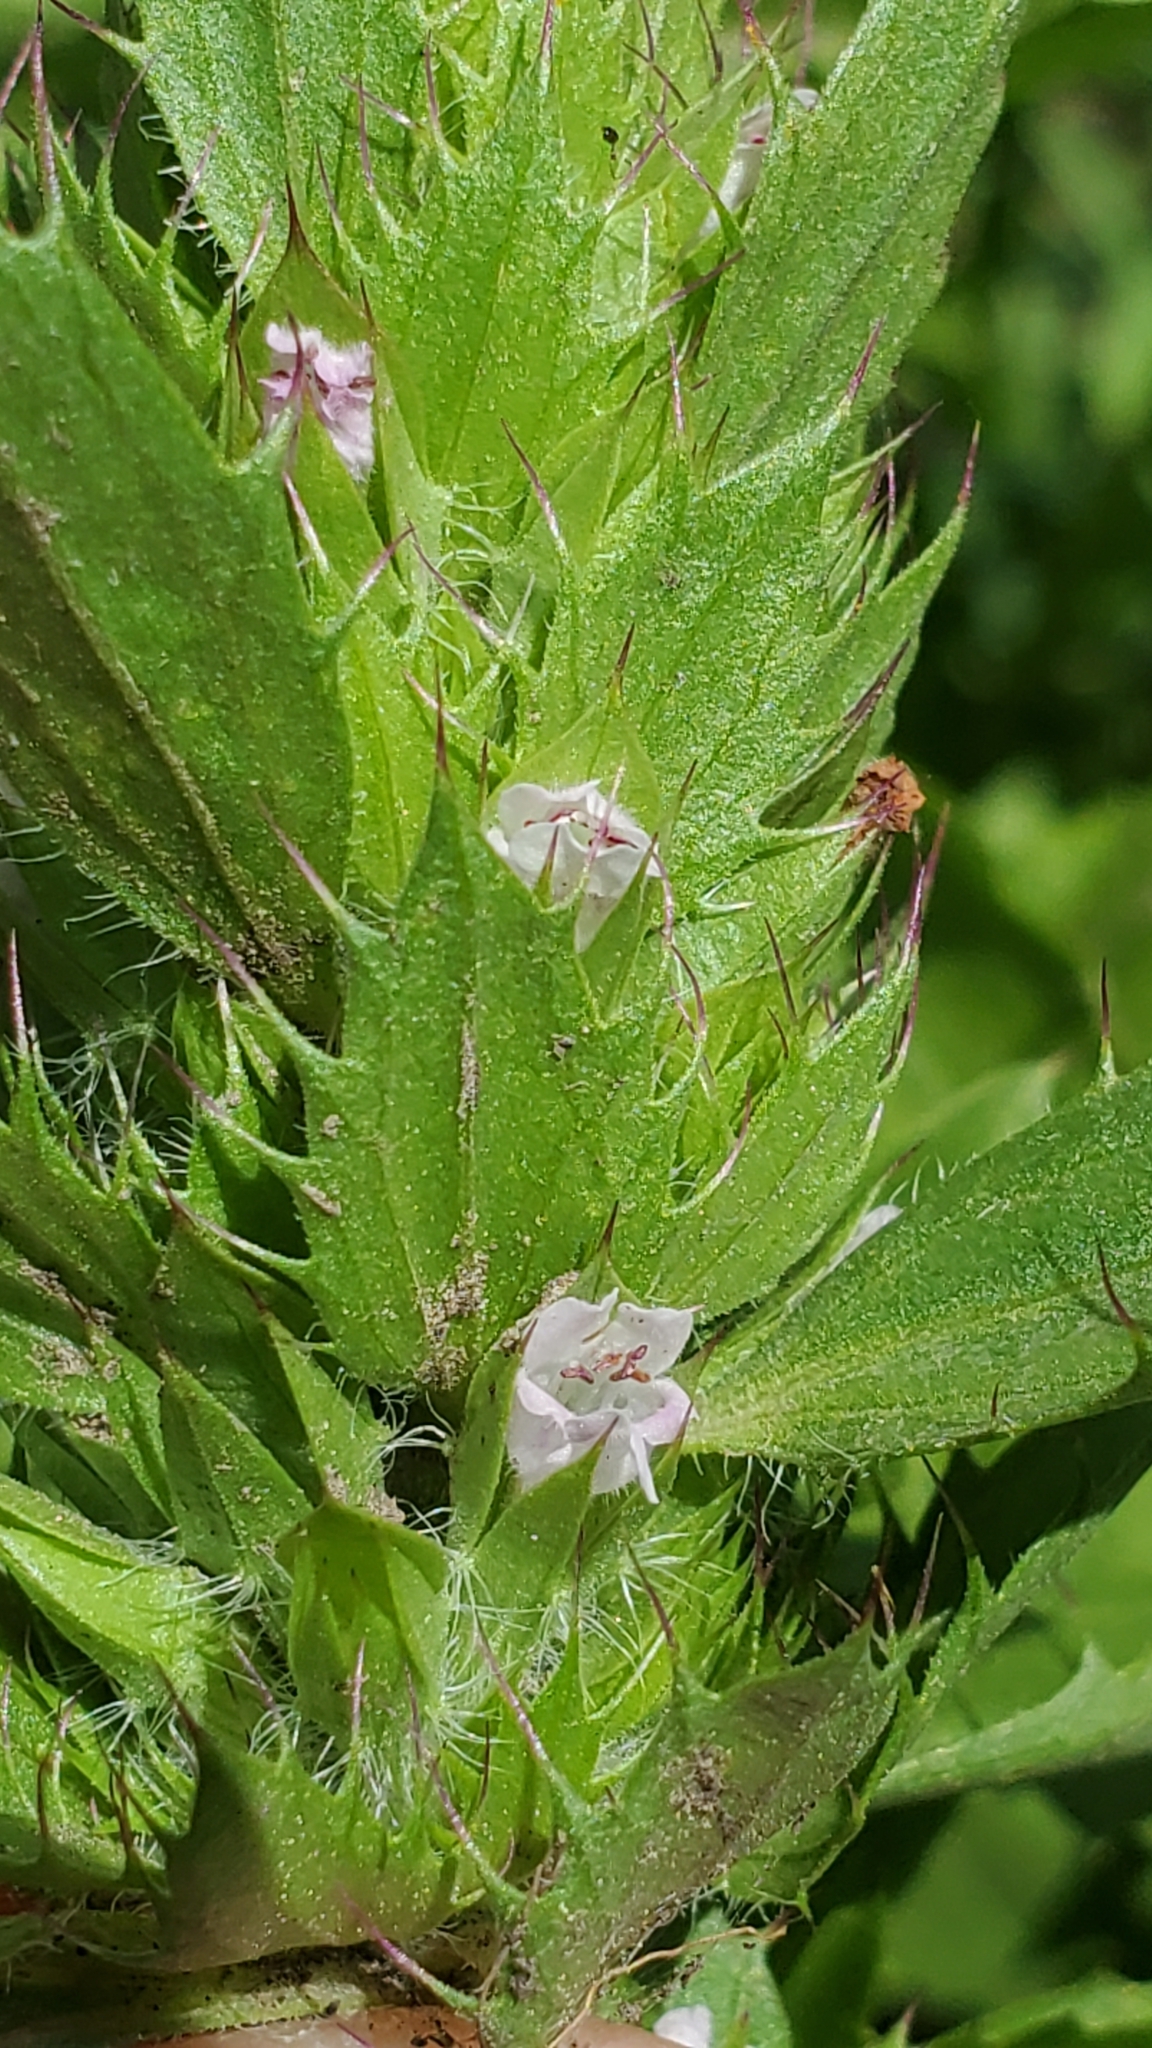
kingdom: Plantae
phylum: Tracheophyta
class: Magnoliopsida
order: Lamiales
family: Lamiaceae
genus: Dracocephalum
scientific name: Dracocephalum parviflorum
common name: American dragonhead
